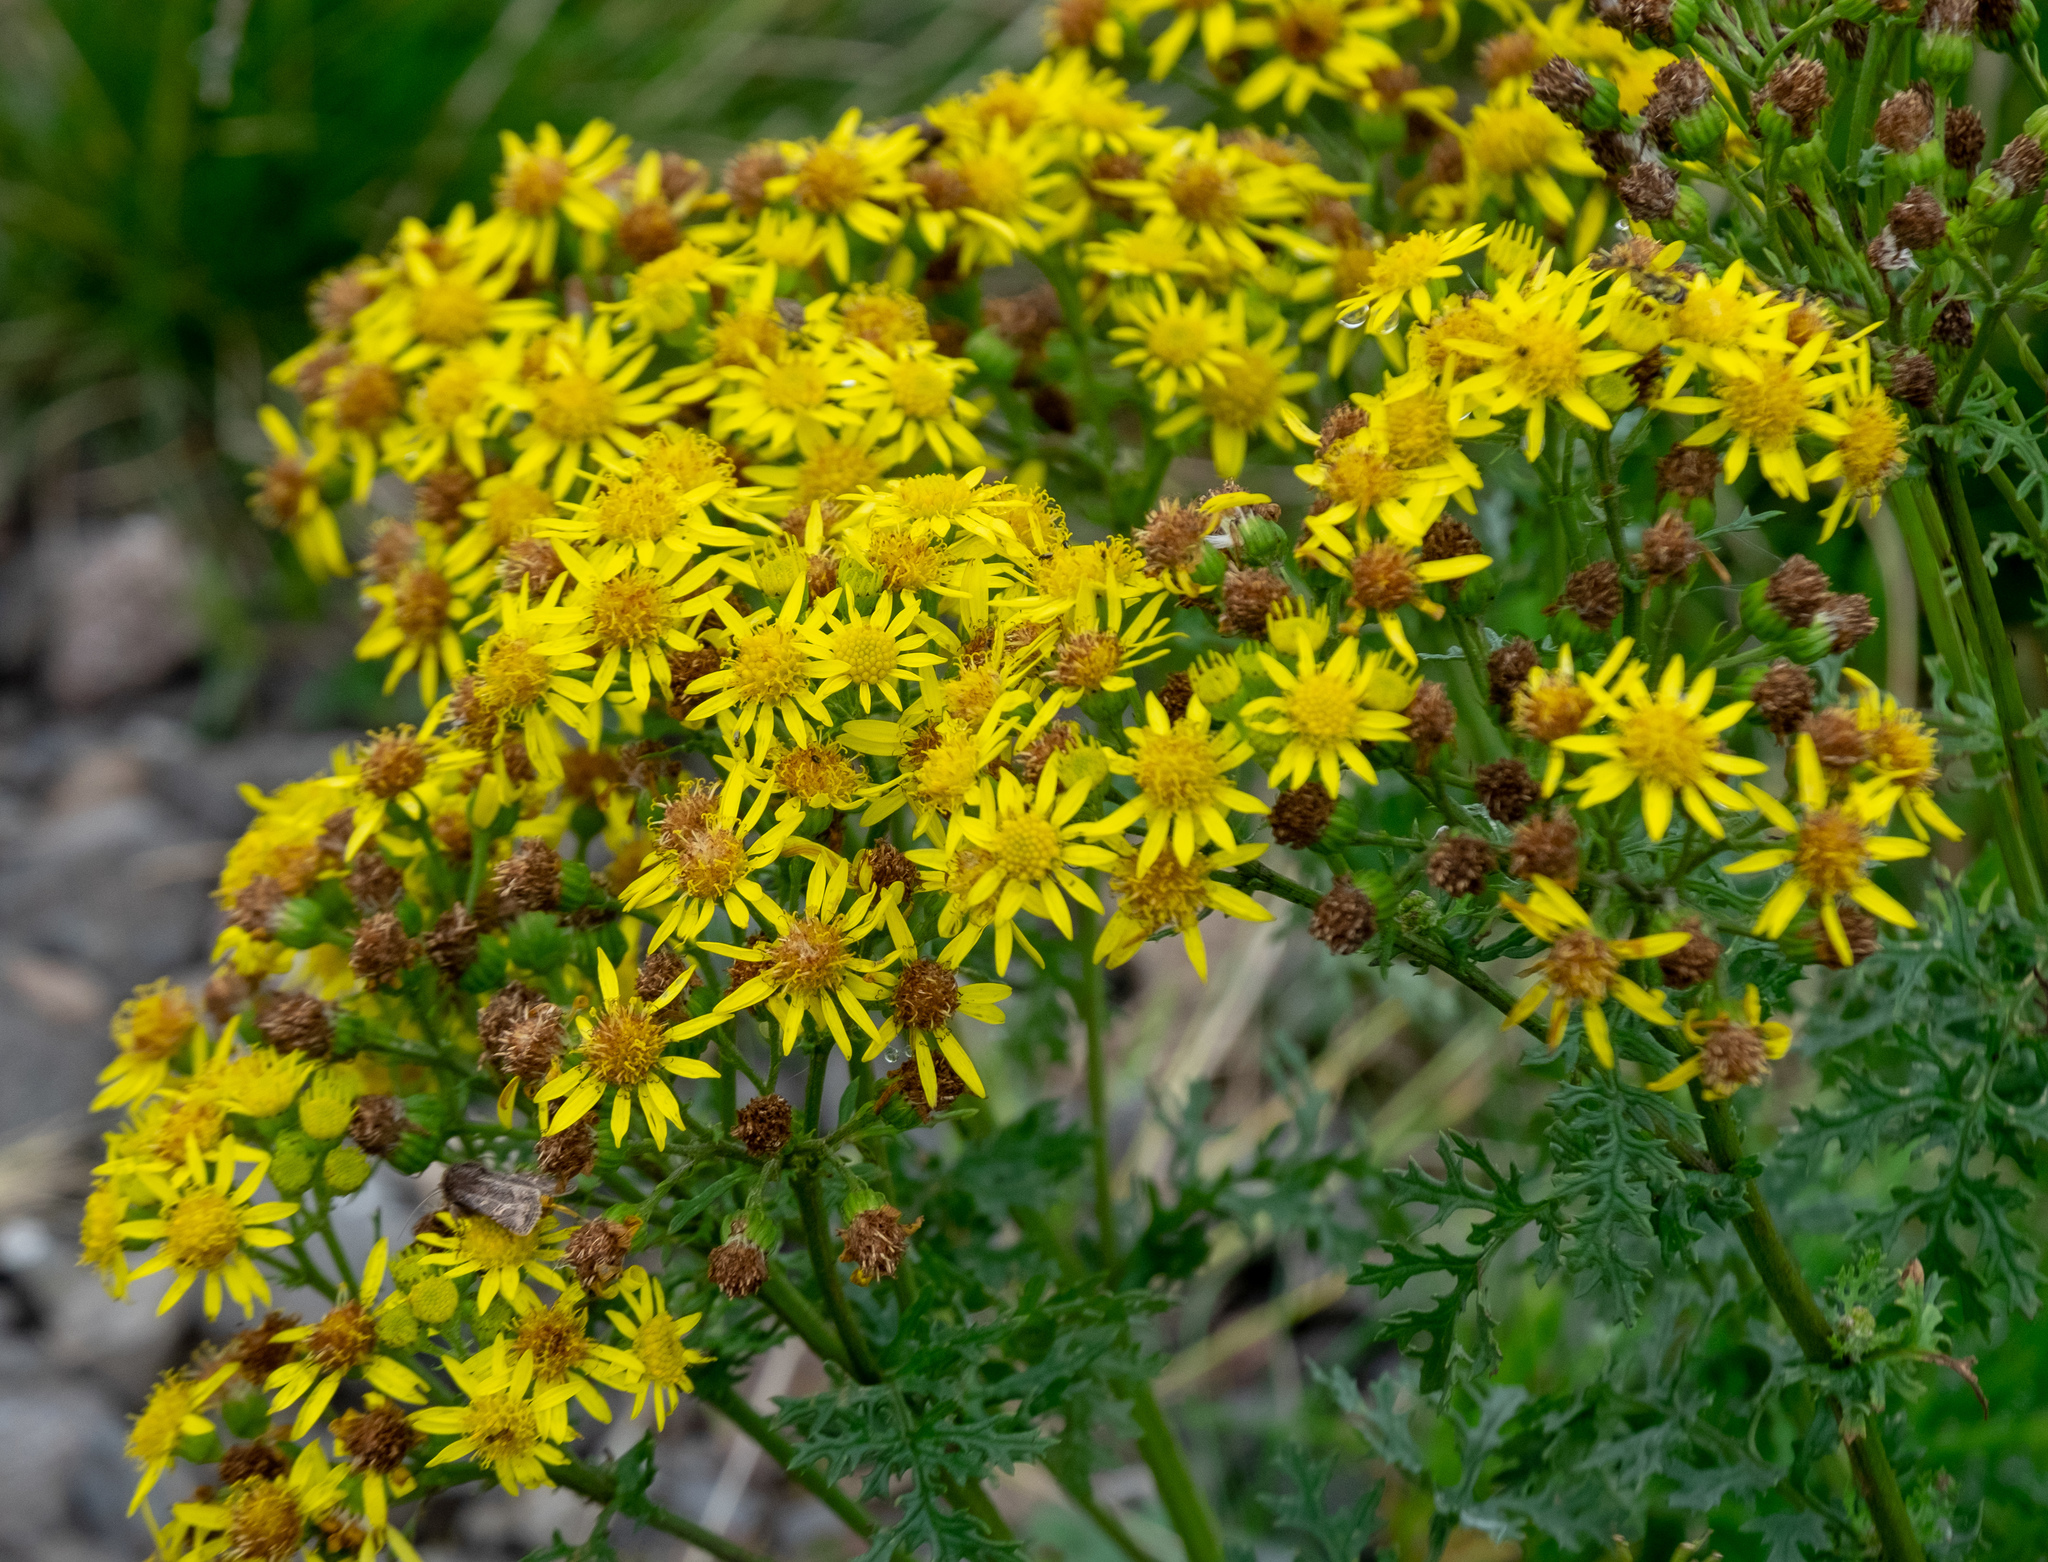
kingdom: Plantae
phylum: Tracheophyta
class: Magnoliopsida
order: Asterales
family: Asteraceae
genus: Jacobaea
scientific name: Jacobaea vulgaris
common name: Stinking willie
